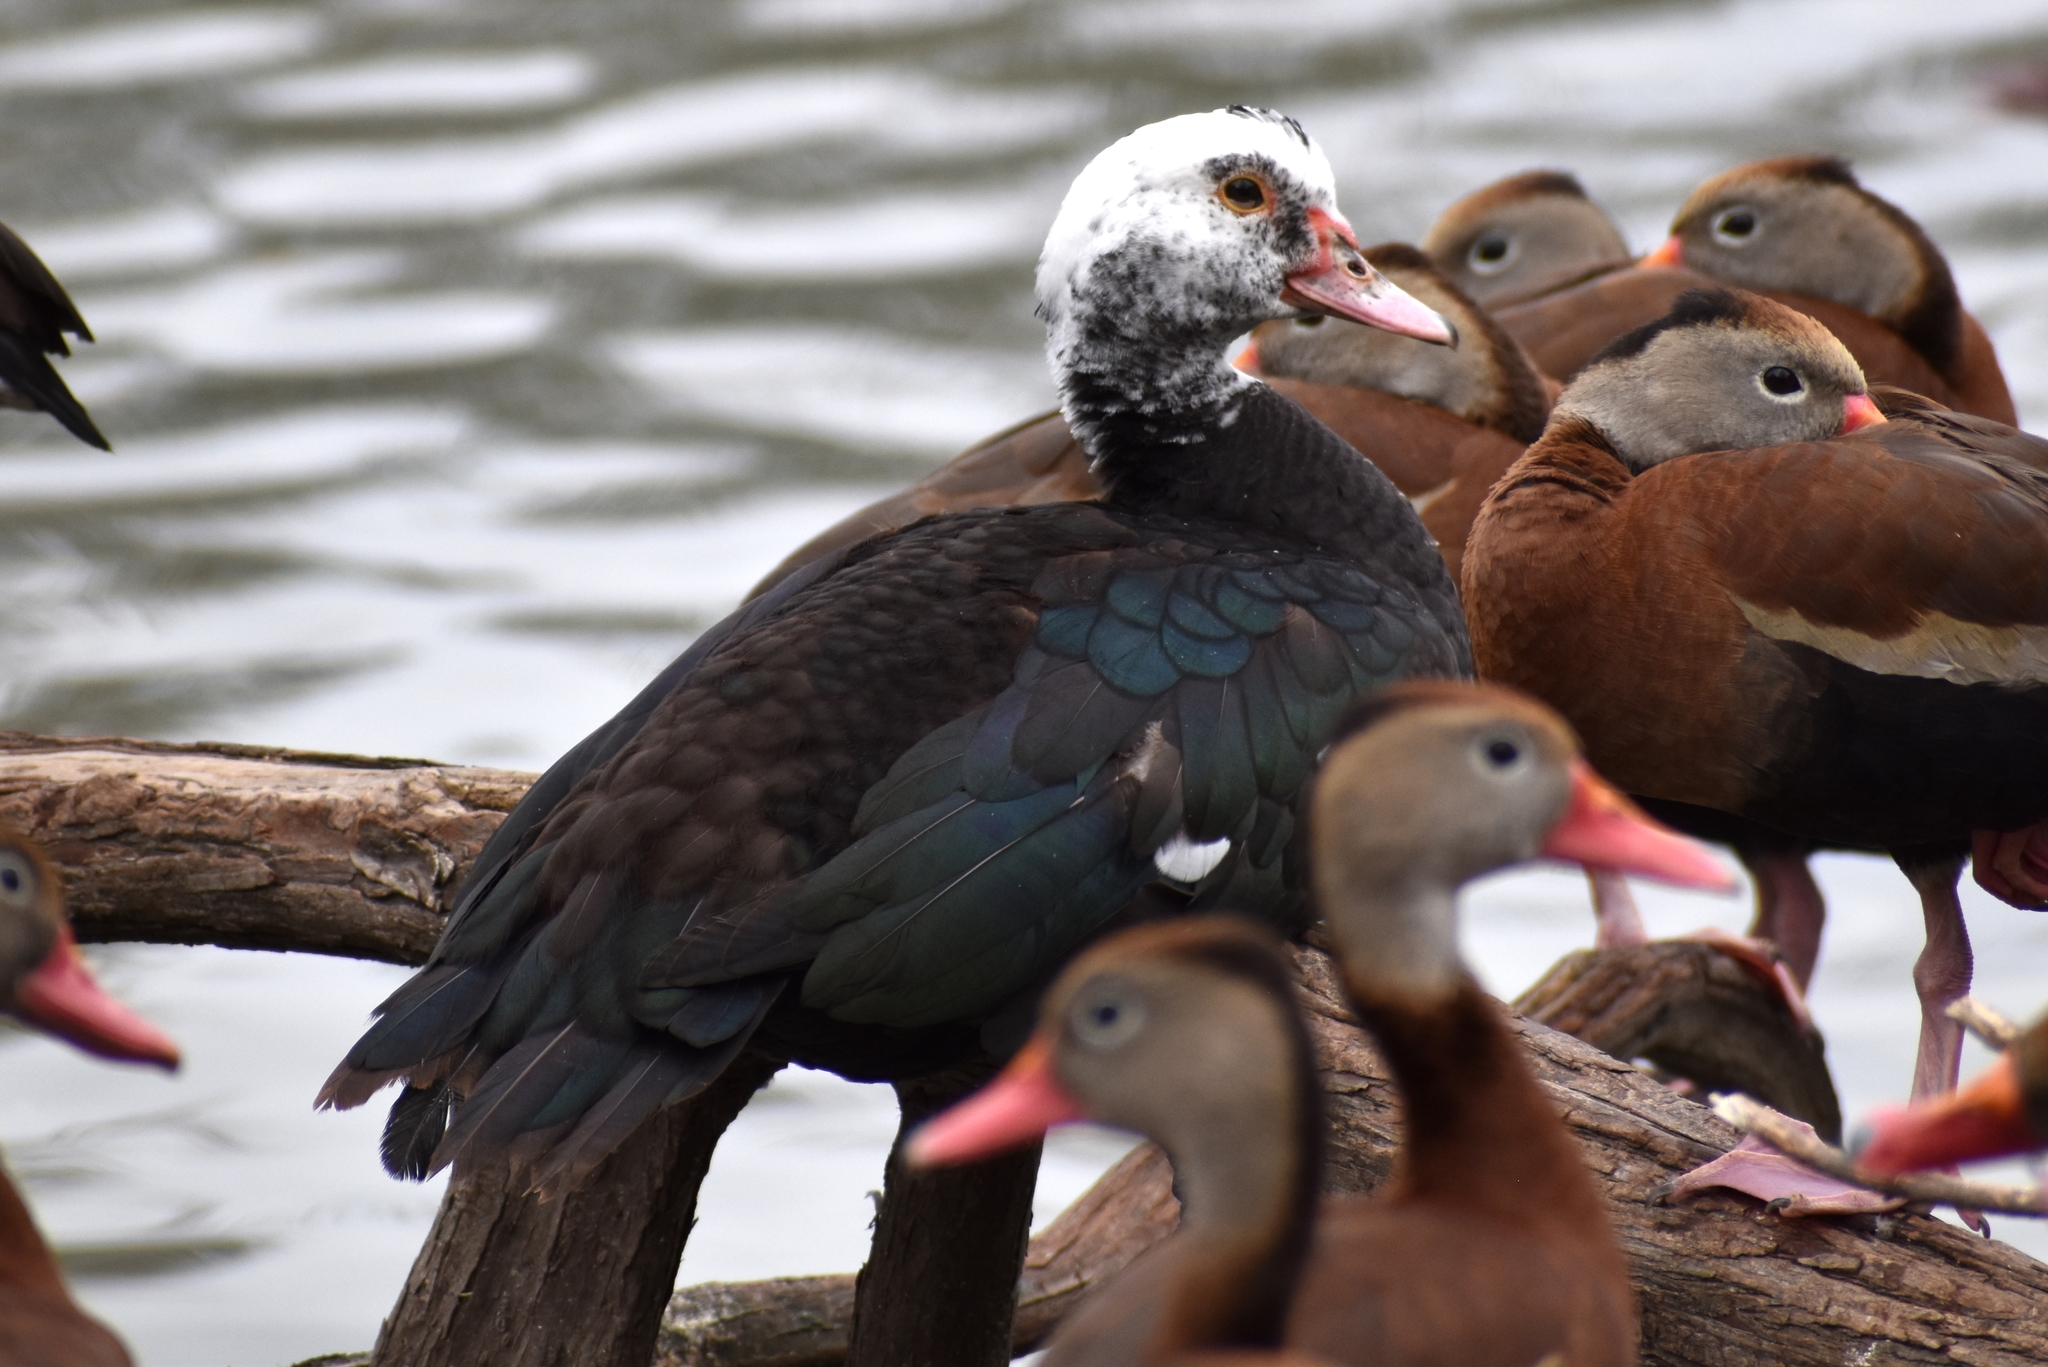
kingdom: Animalia
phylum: Chordata
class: Aves
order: Anseriformes
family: Anatidae
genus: Cairina
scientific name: Cairina moschata
